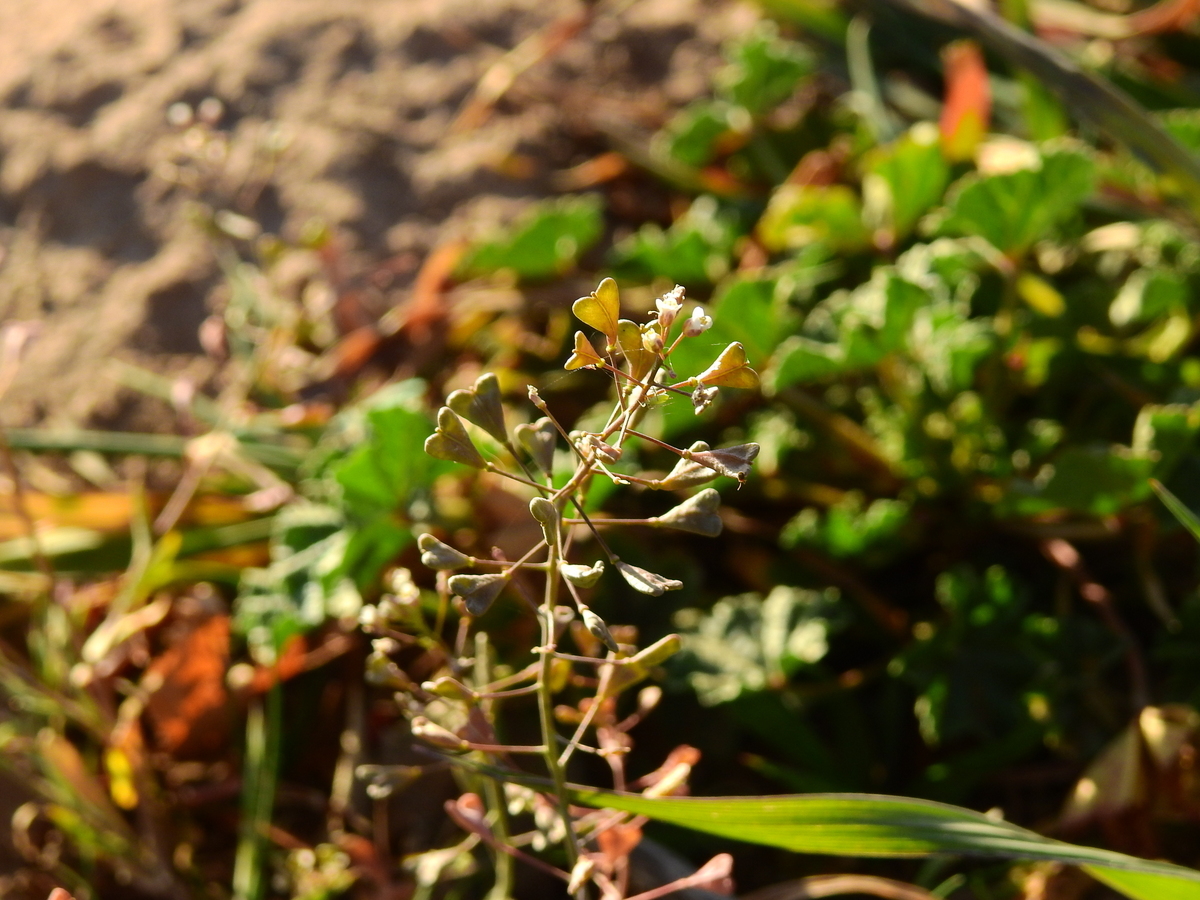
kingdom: Plantae
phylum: Tracheophyta
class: Magnoliopsida
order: Brassicales
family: Brassicaceae
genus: Capsella
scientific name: Capsella bursa-pastoris
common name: Shepherd's purse
